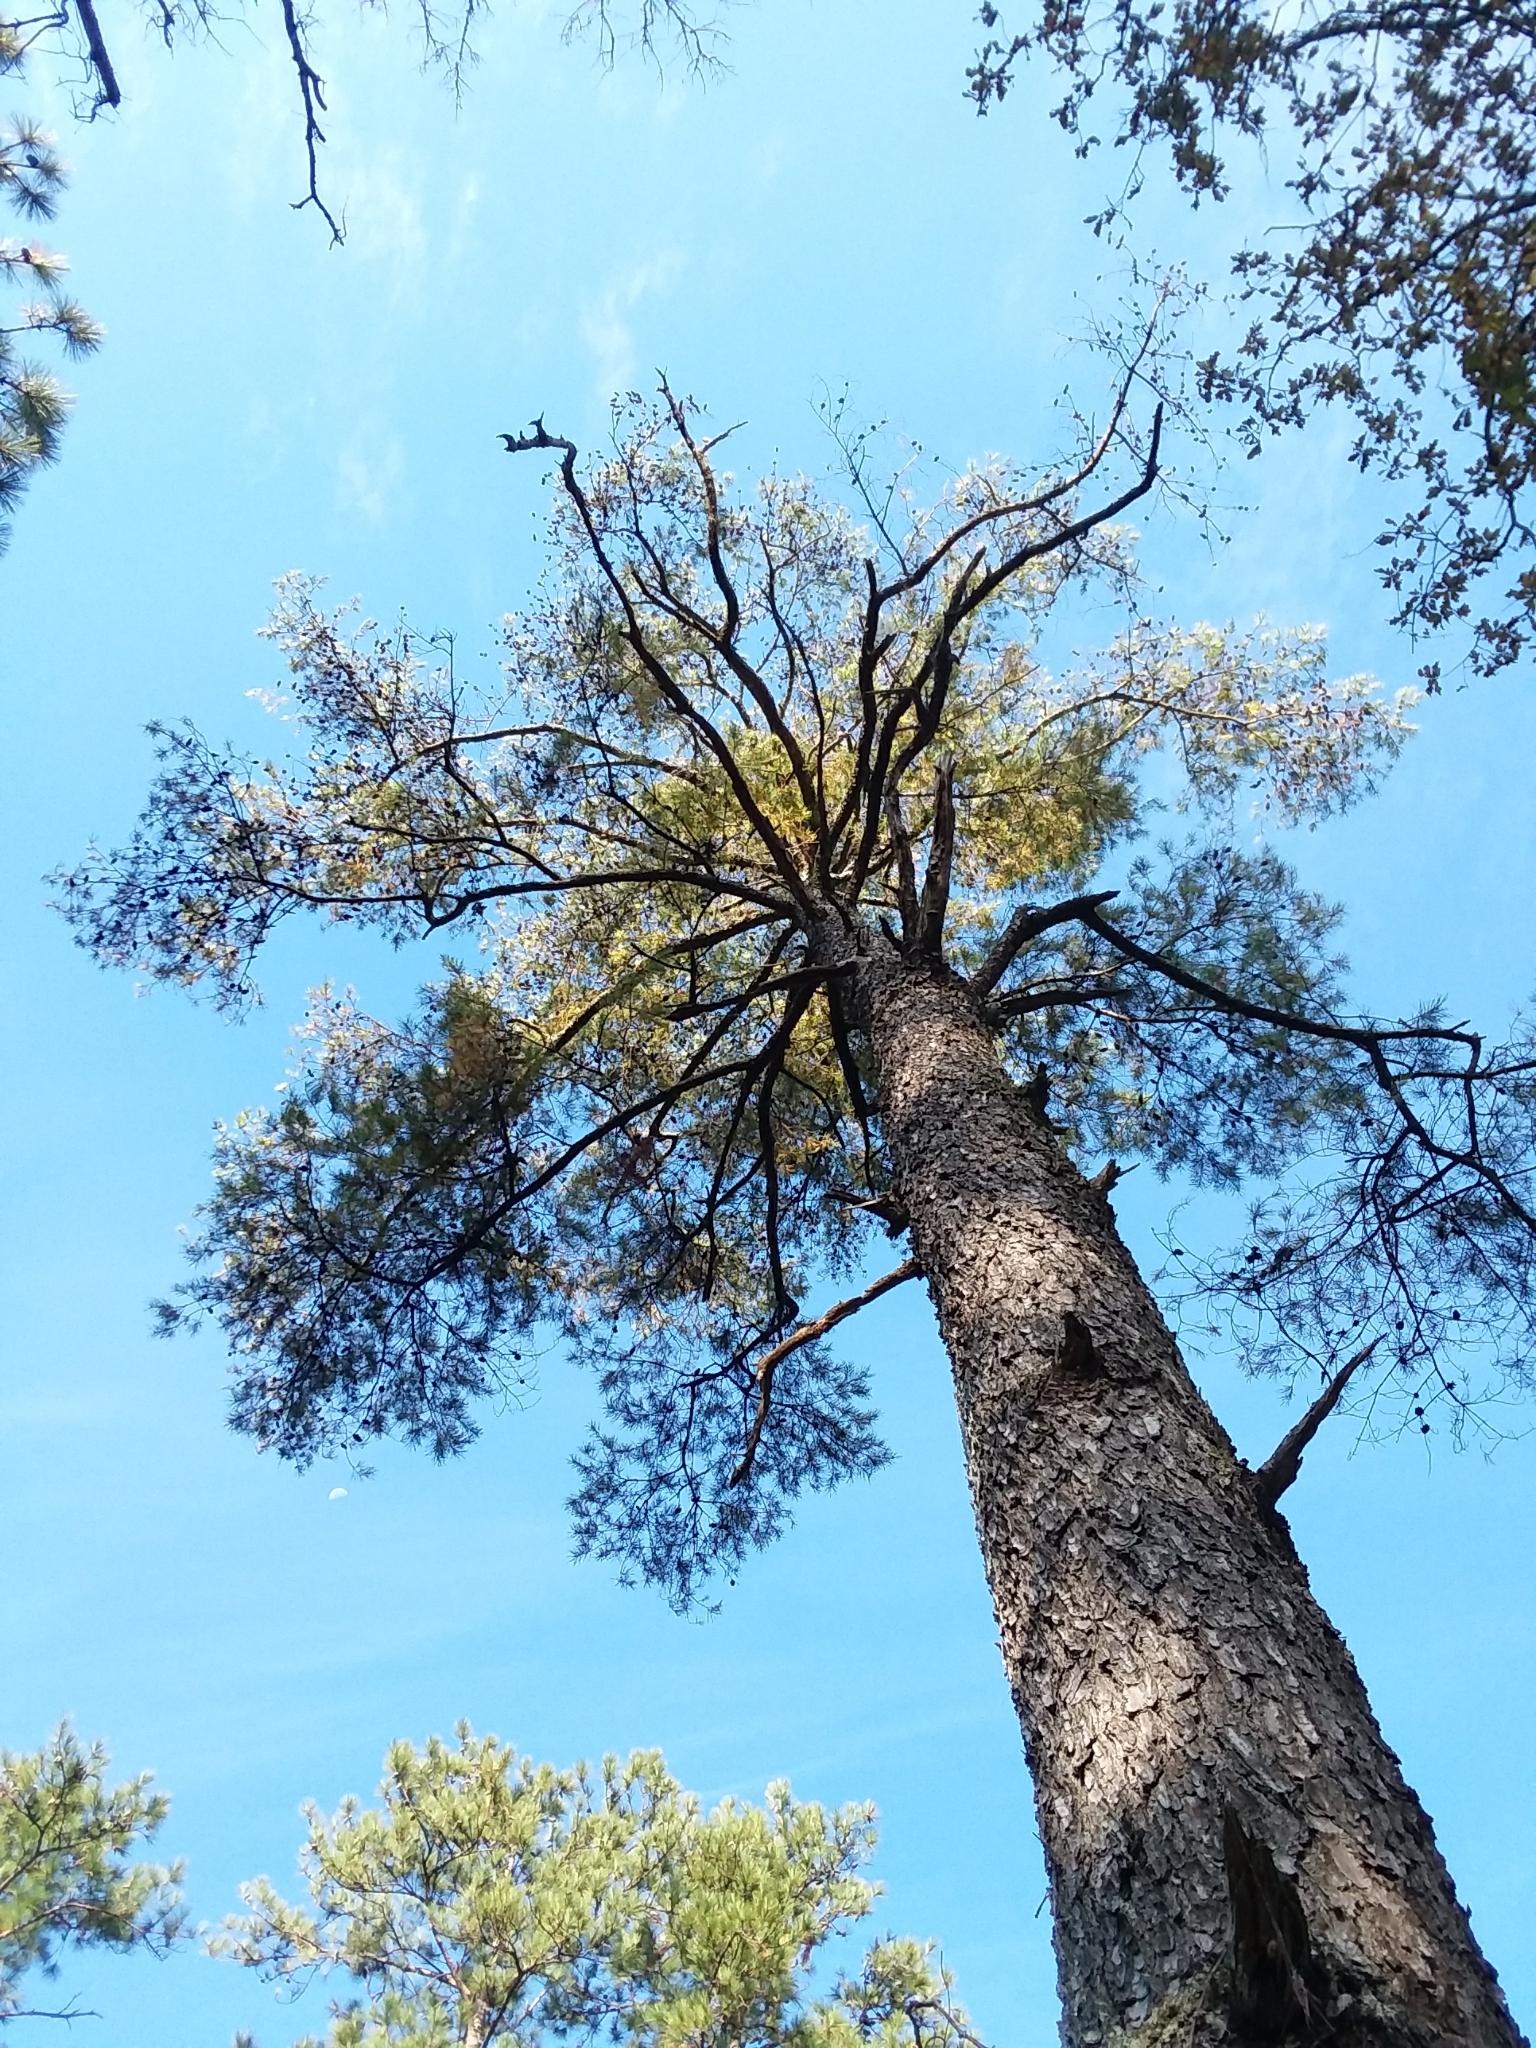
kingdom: Plantae
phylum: Tracheophyta
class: Pinopsida
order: Pinales
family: Pinaceae
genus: Pinus
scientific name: Pinus glabra
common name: Spruce pine
